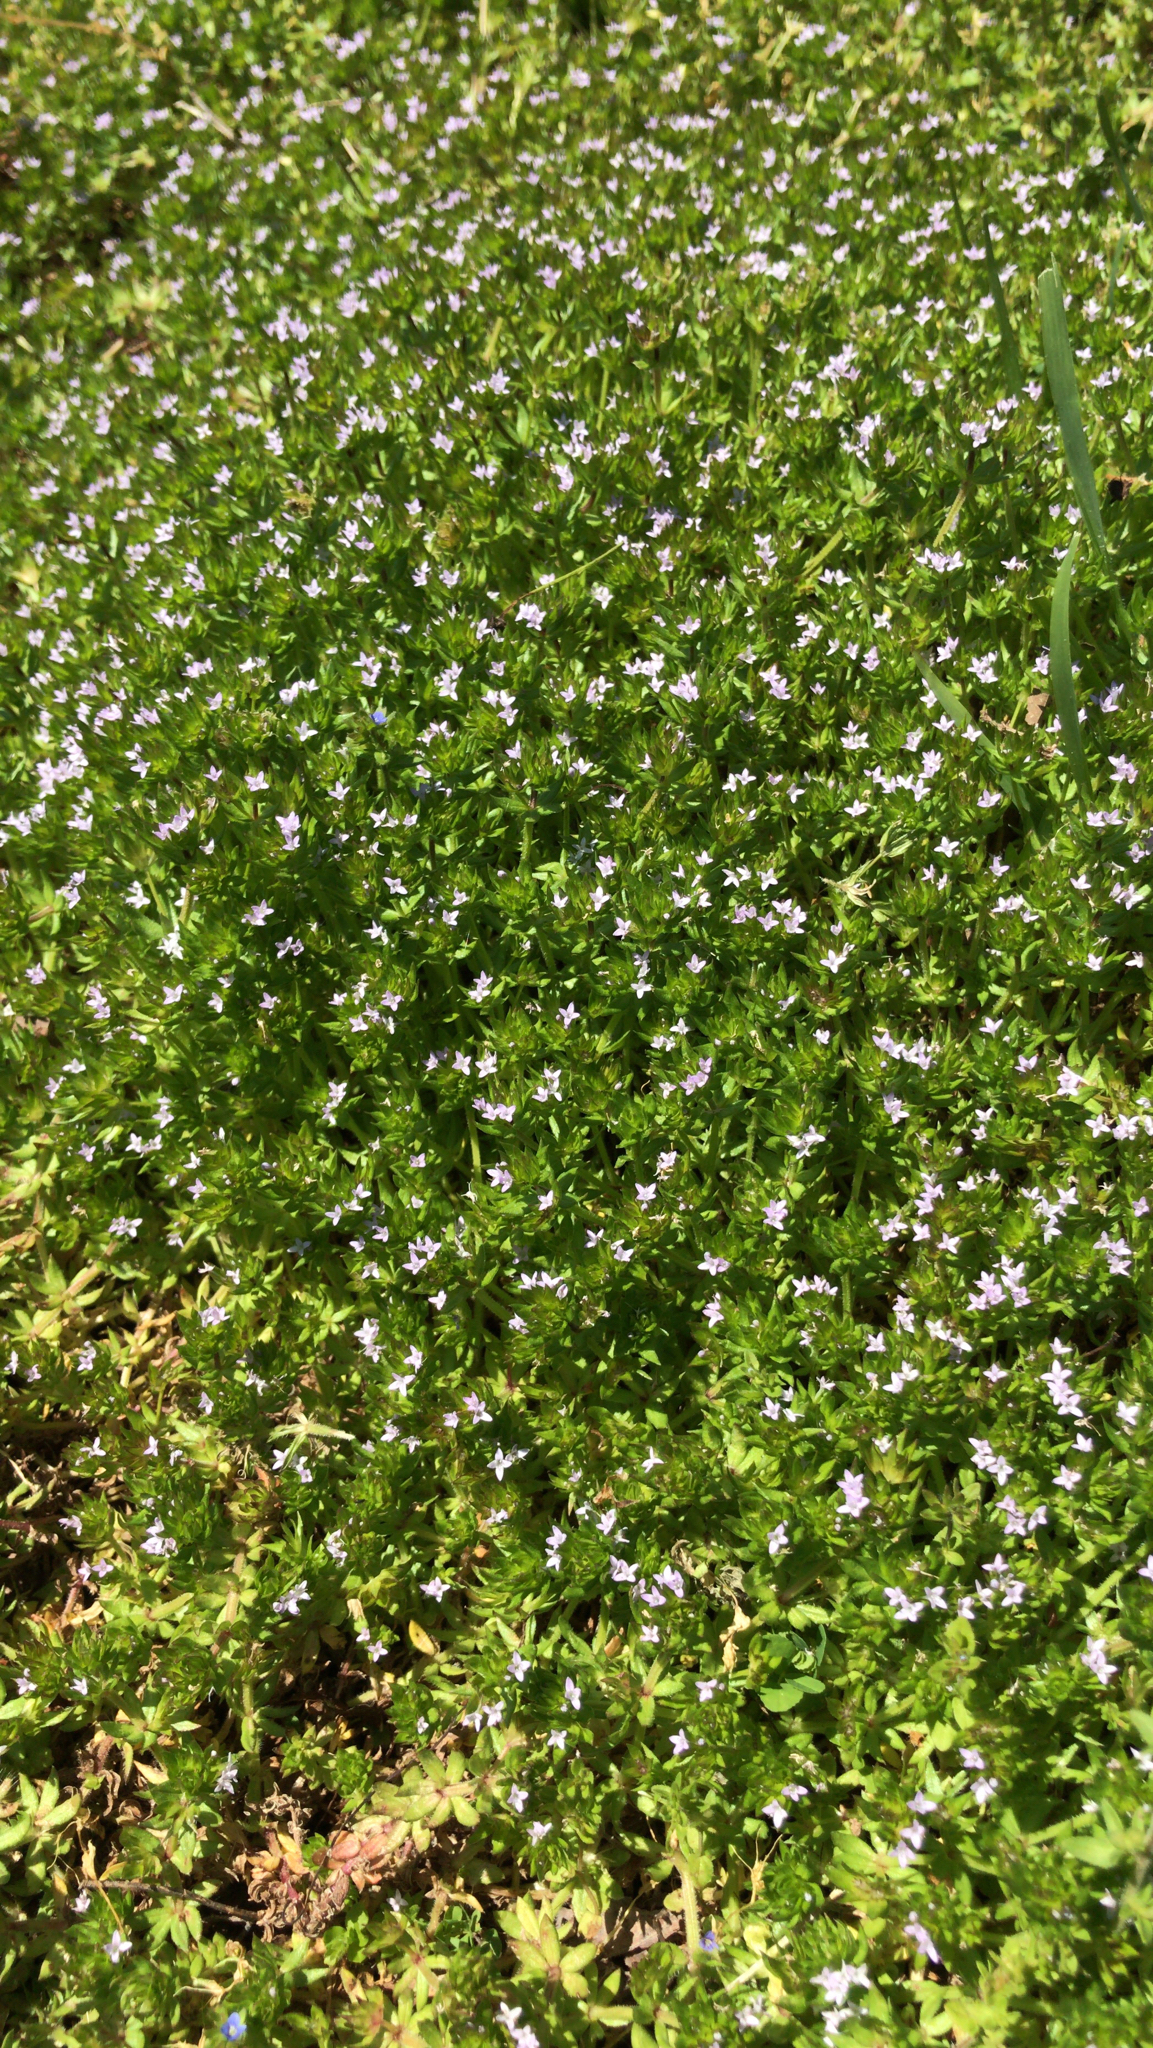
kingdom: Plantae
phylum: Tracheophyta
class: Magnoliopsida
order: Gentianales
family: Rubiaceae
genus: Sherardia
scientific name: Sherardia arvensis
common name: Field madder
